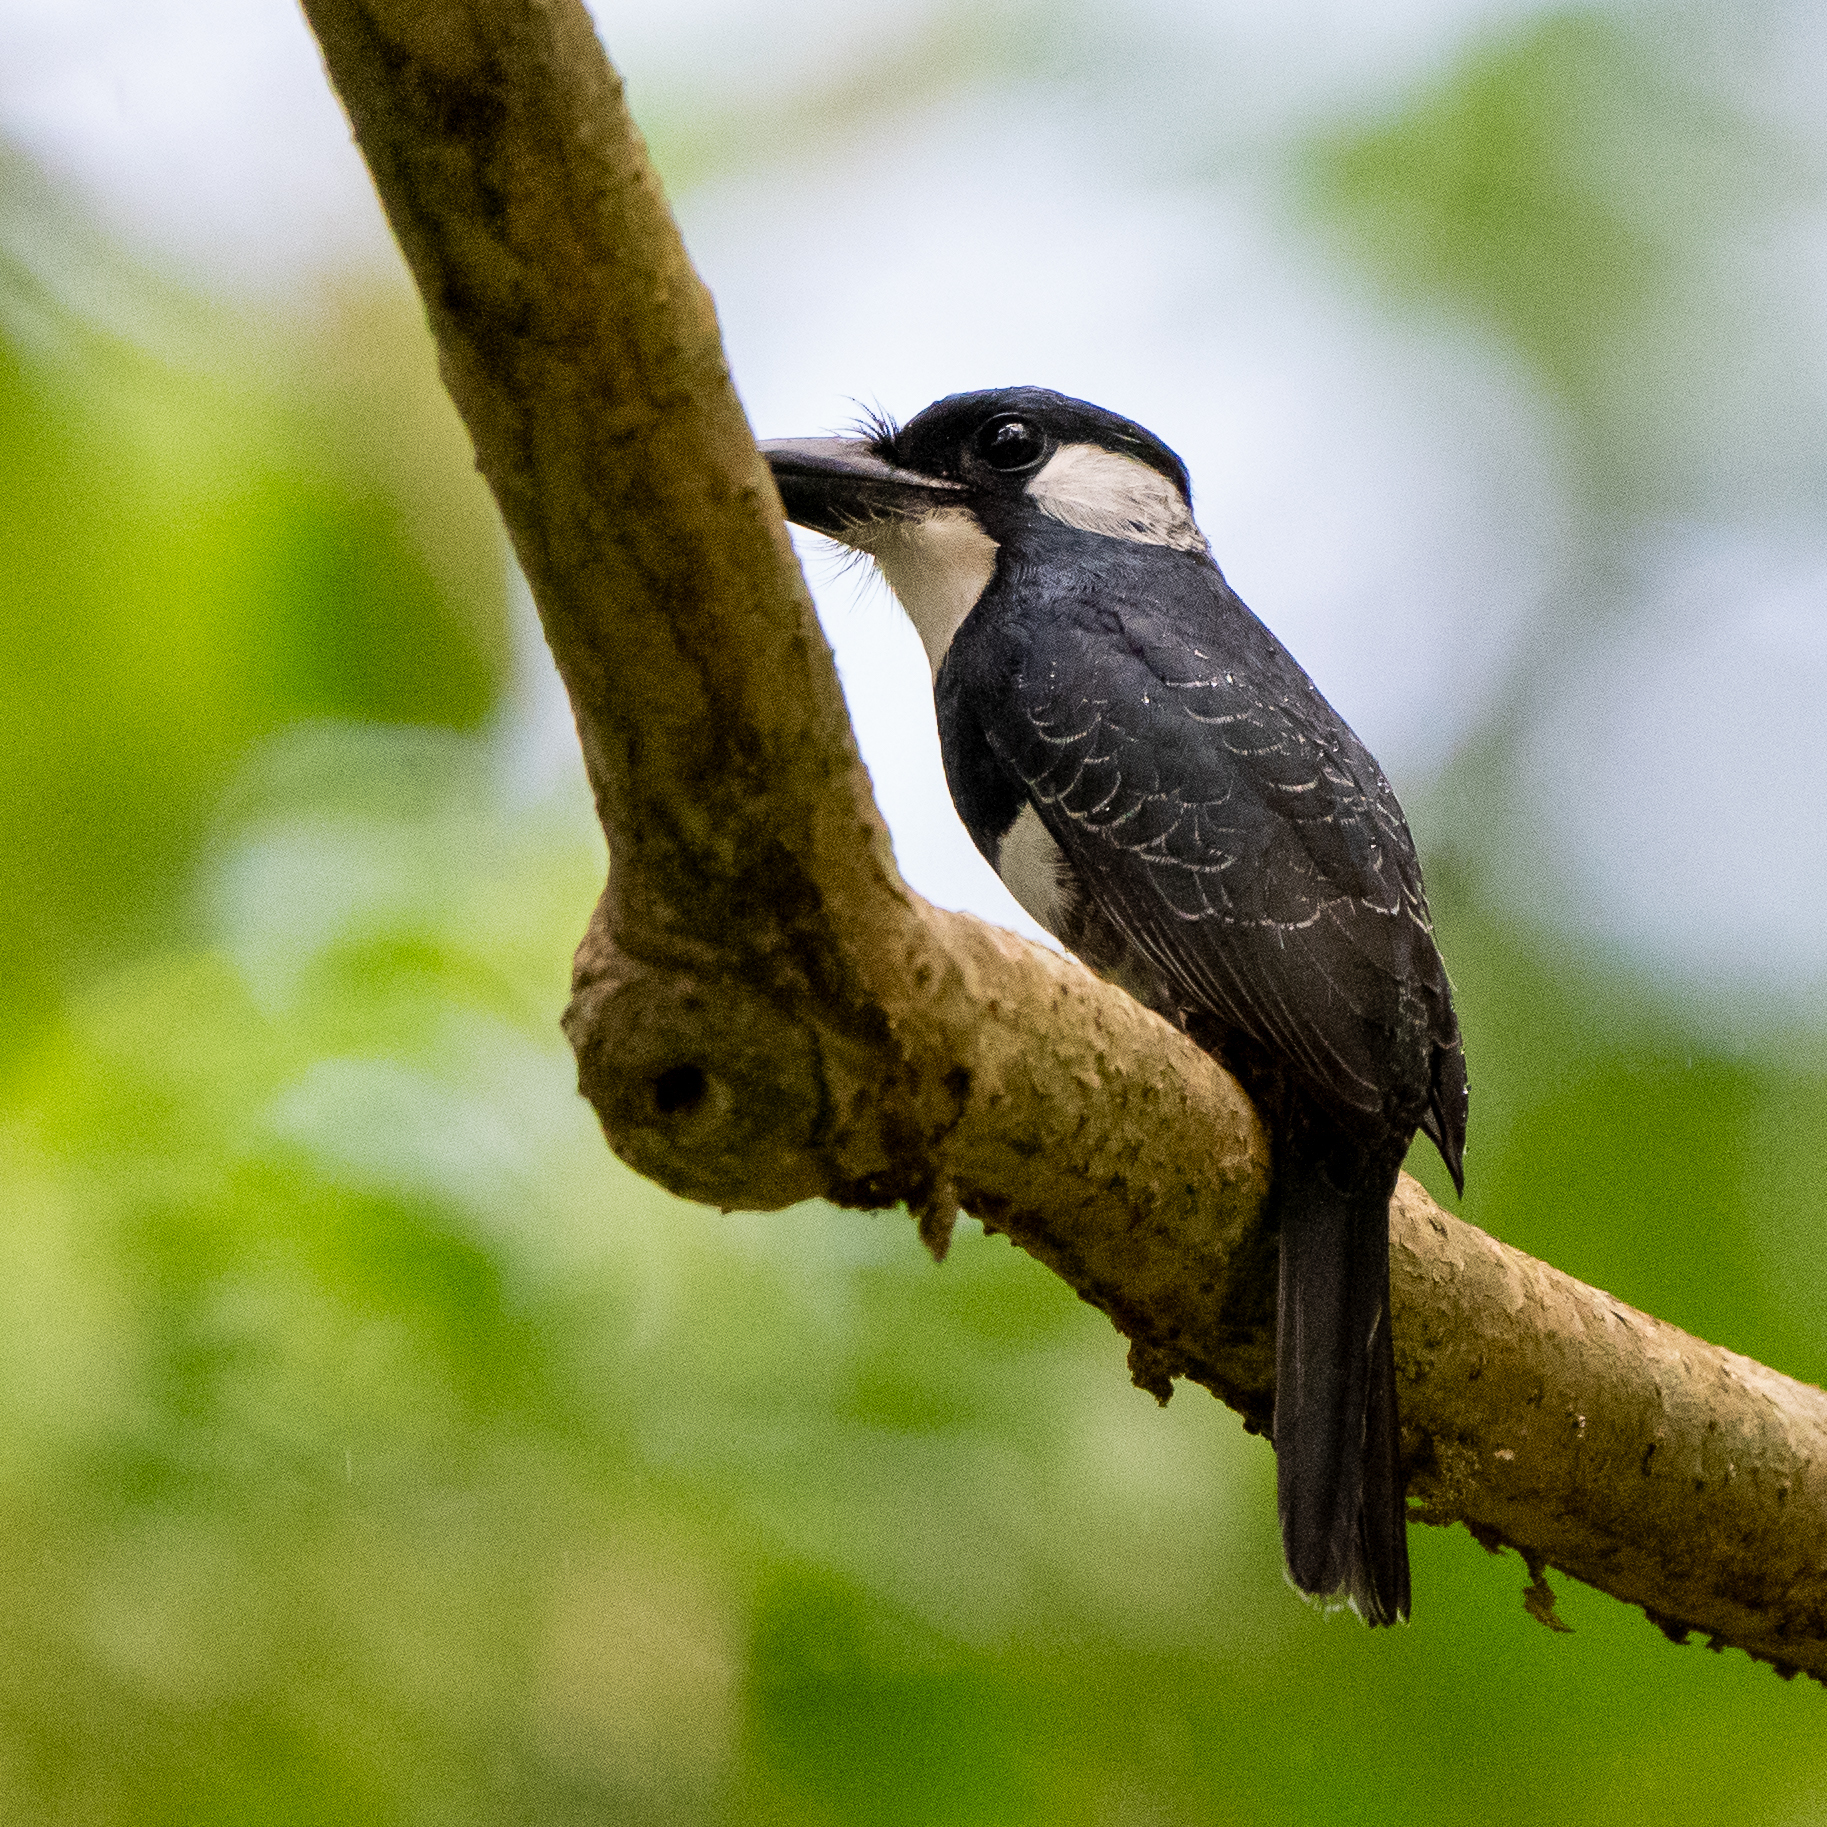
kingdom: Animalia
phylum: Chordata
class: Aves
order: Piciformes
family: Bucconidae
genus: Notharchus
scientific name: Notharchus pectoralis
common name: Black-breasted puffbird
